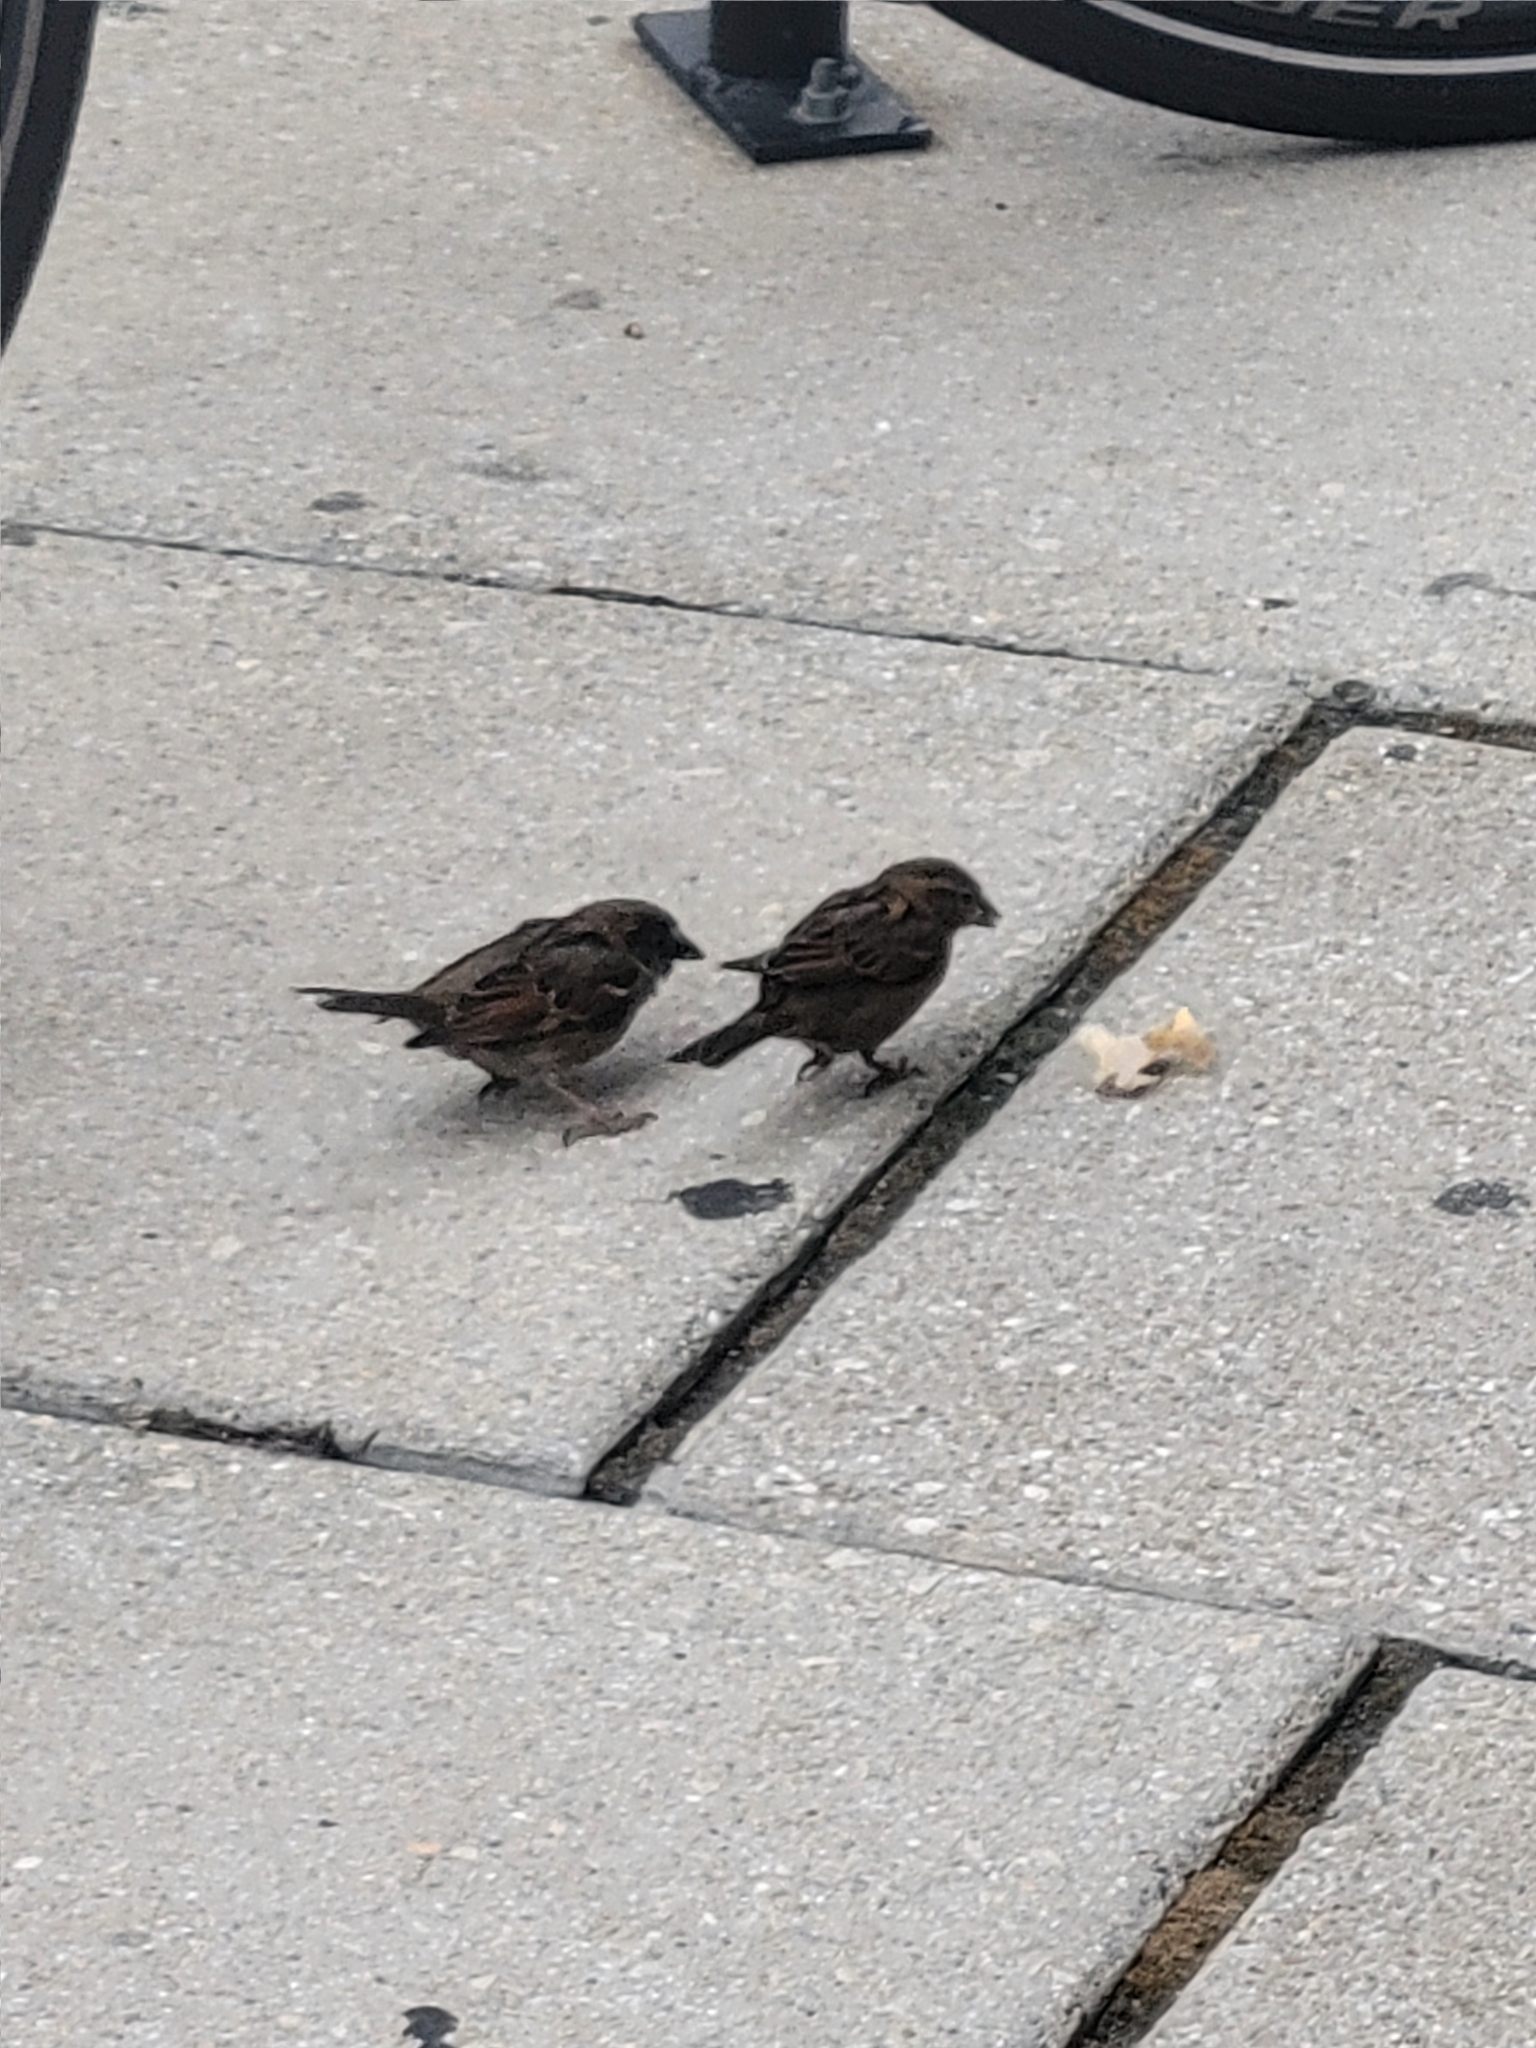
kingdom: Animalia
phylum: Chordata
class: Aves
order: Passeriformes
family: Passeridae
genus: Passer
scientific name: Passer domesticus
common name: House sparrow
